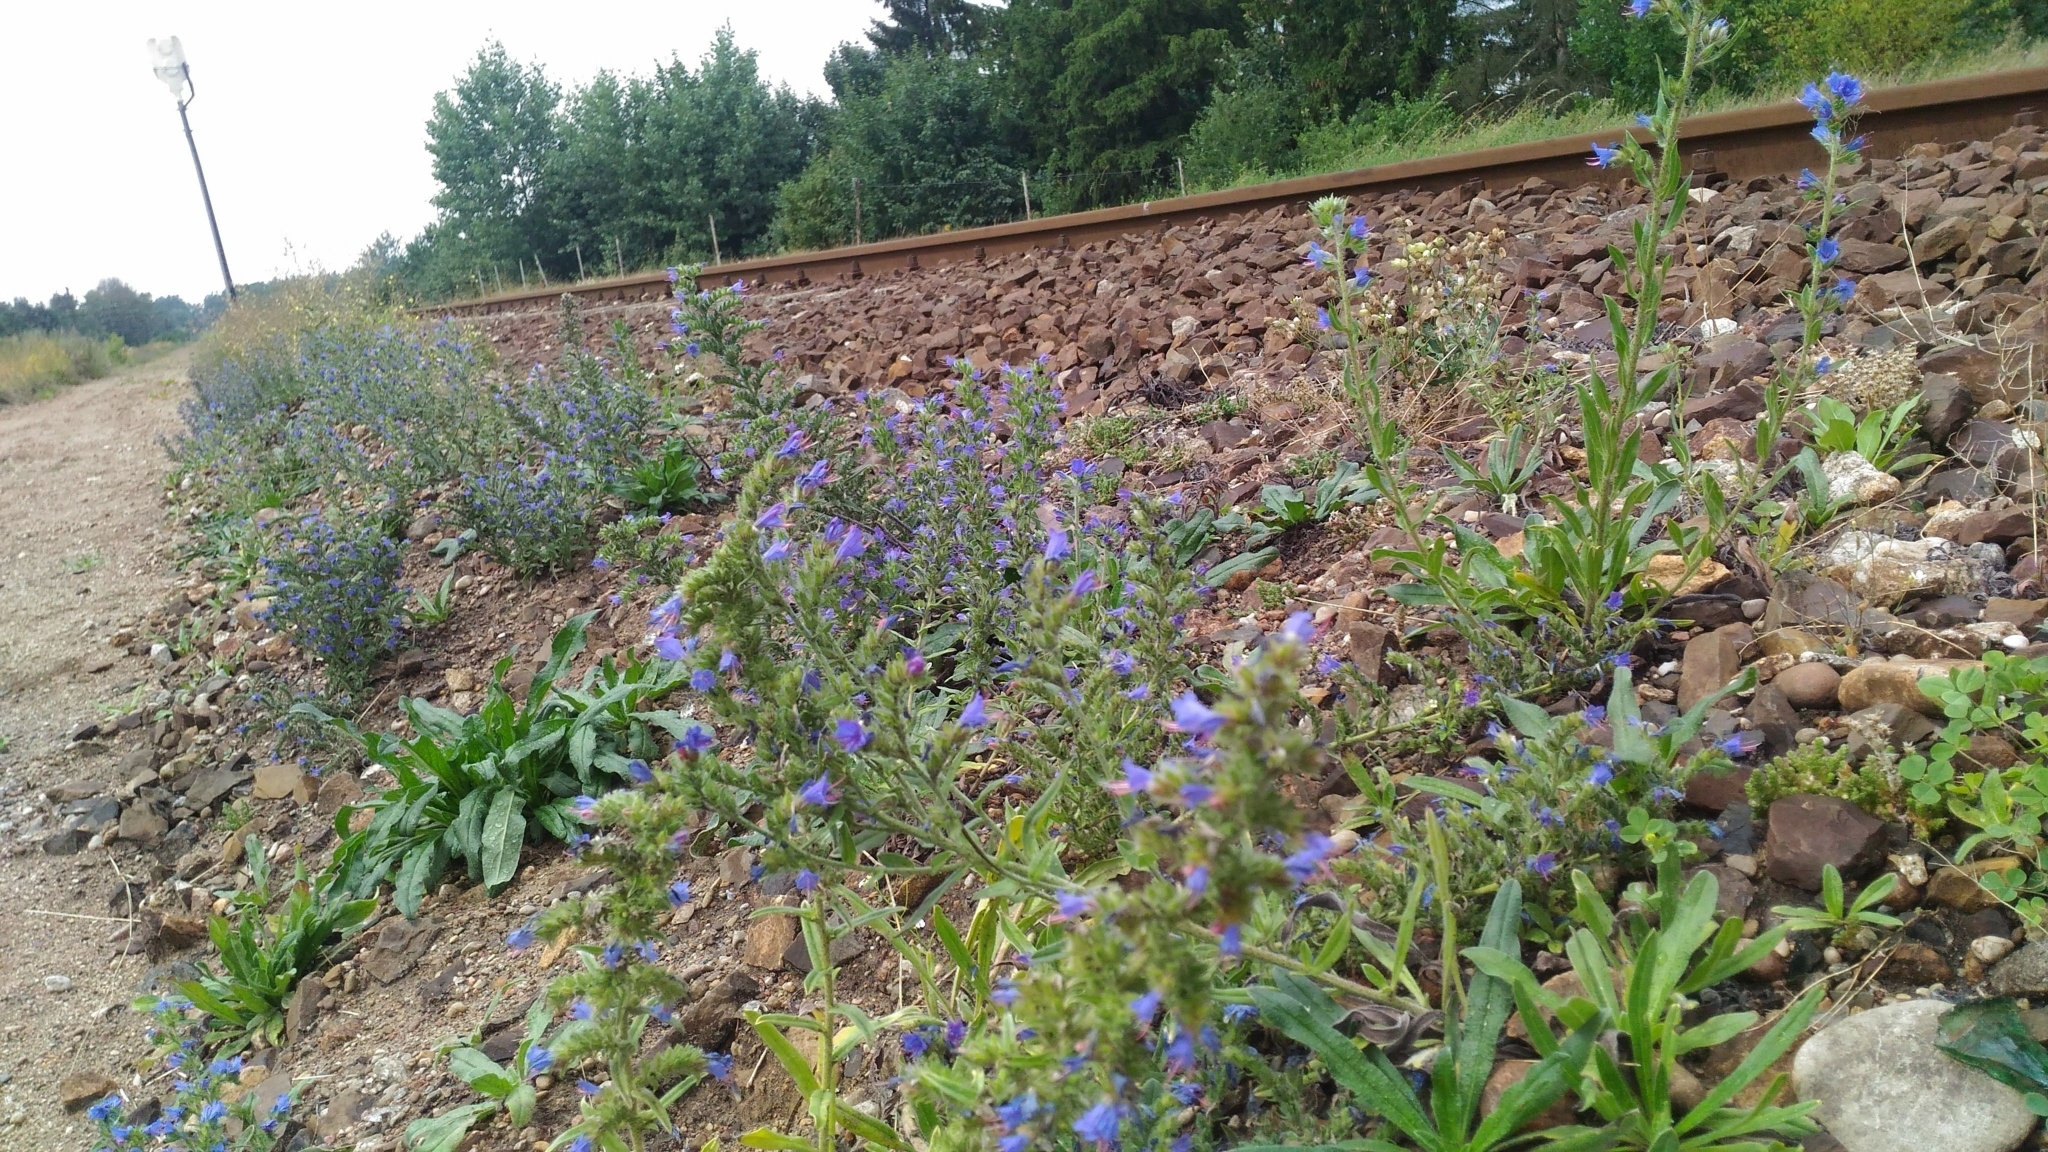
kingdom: Plantae
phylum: Tracheophyta
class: Magnoliopsida
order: Boraginales
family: Boraginaceae
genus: Echium
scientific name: Echium vulgare
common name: Common viper's bugloss
